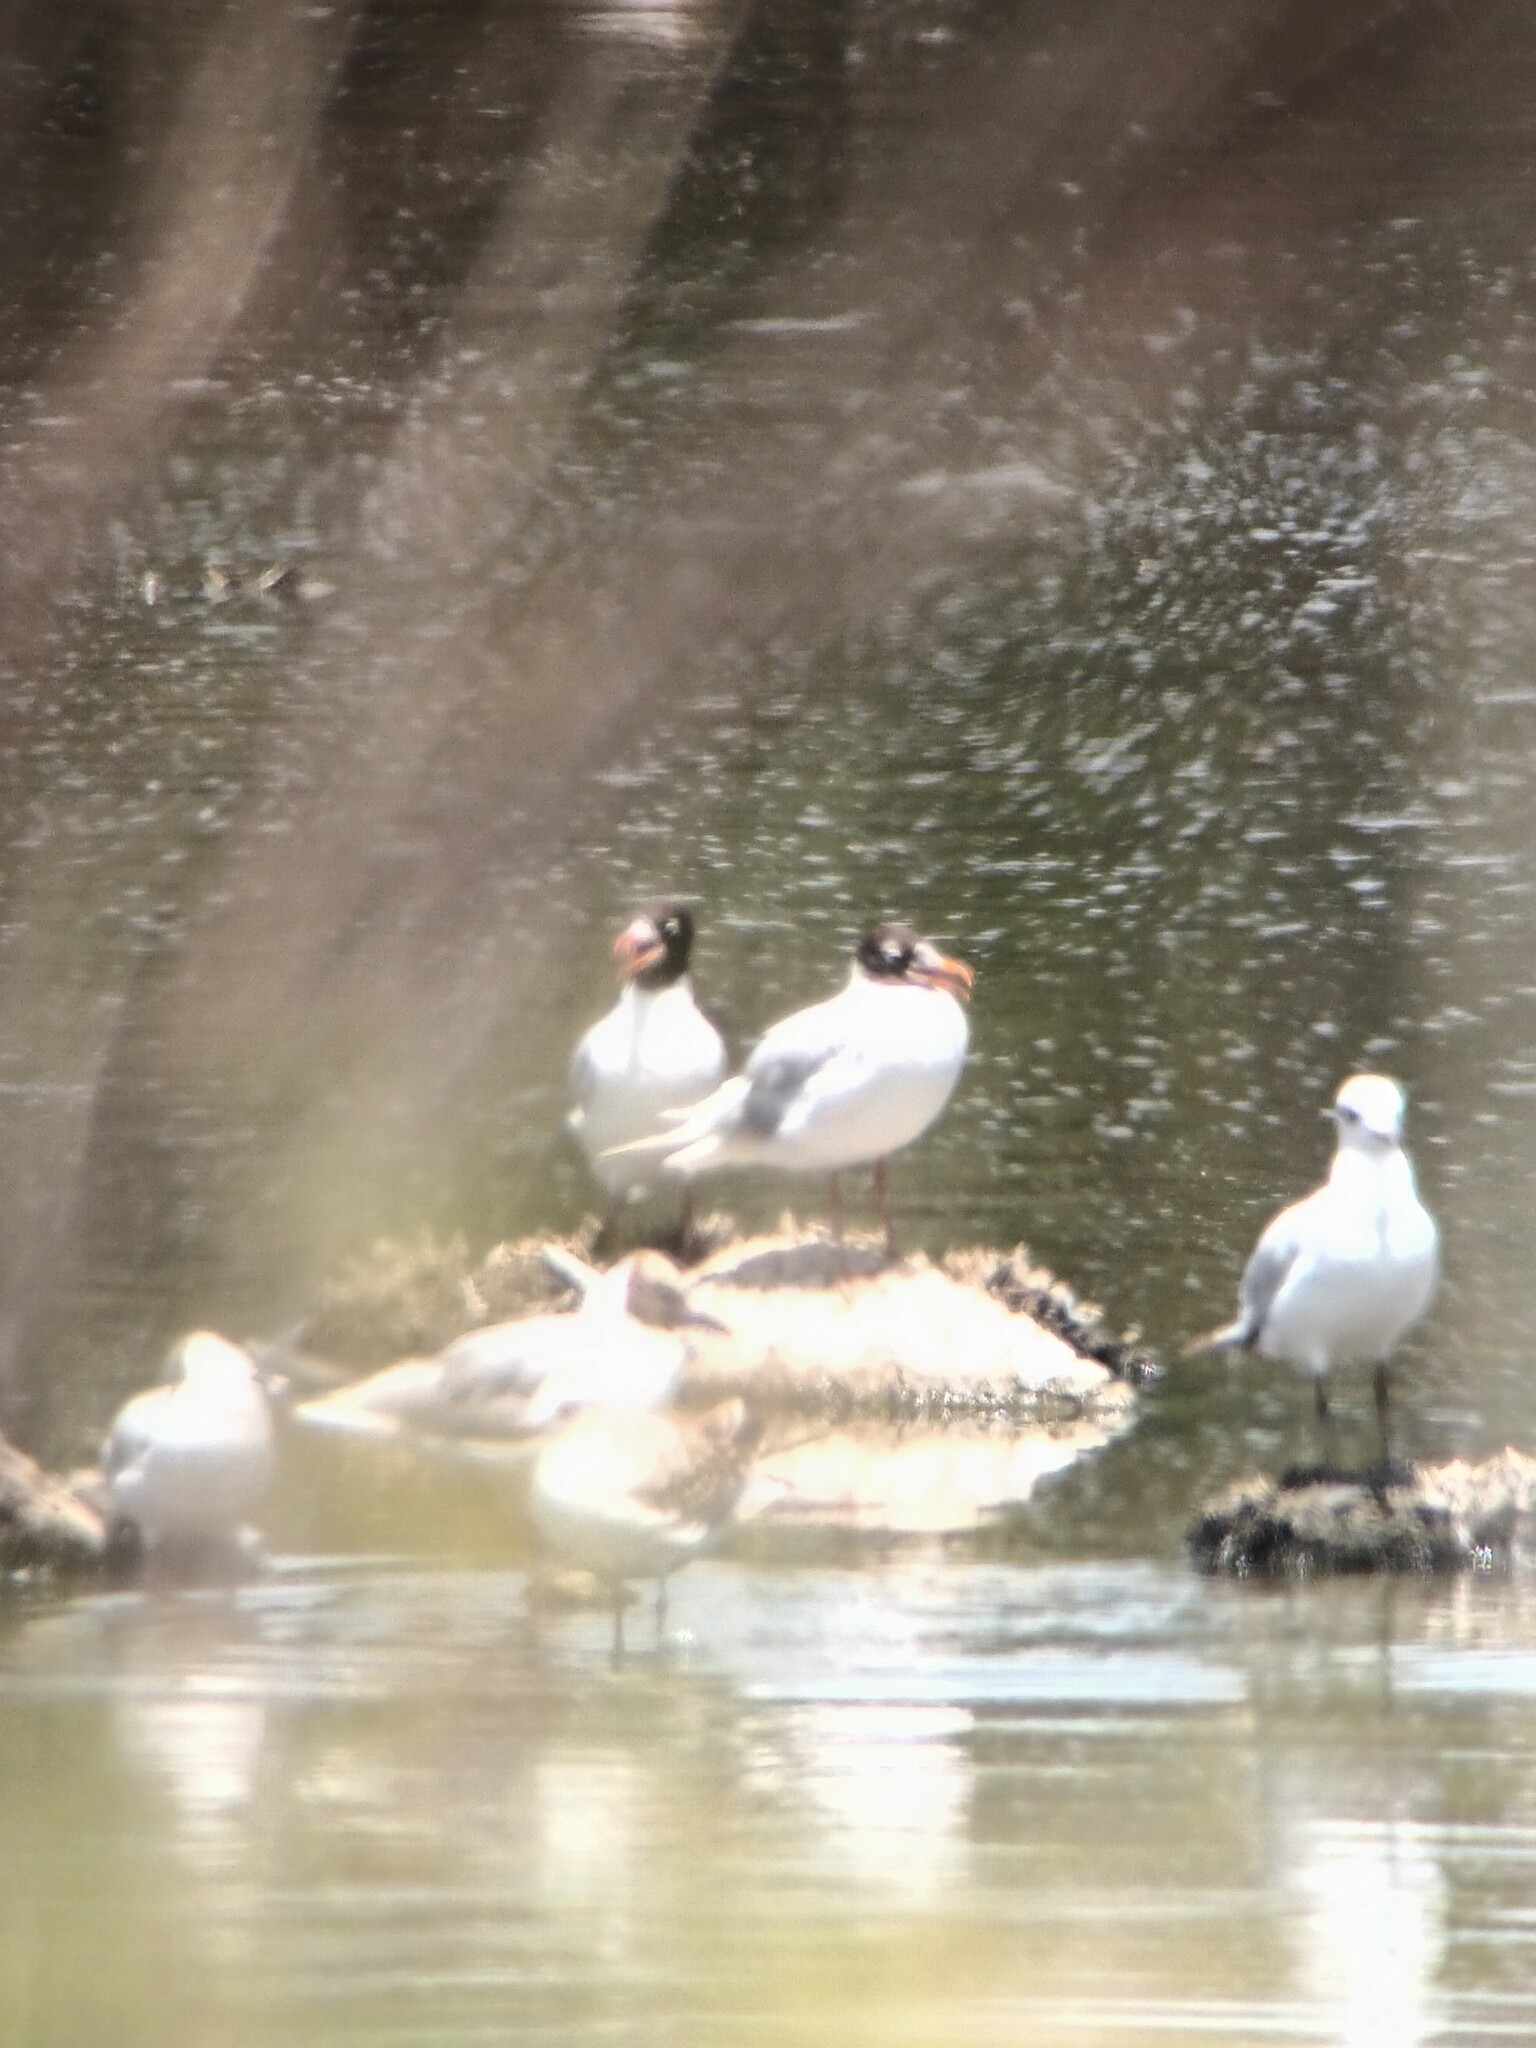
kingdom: Animalia
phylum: Chordata
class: Aves
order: Charadriiformes
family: Laridae
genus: Ichthyaetus
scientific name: Ichthyaetus melanocephalus
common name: Mediterranean gull
